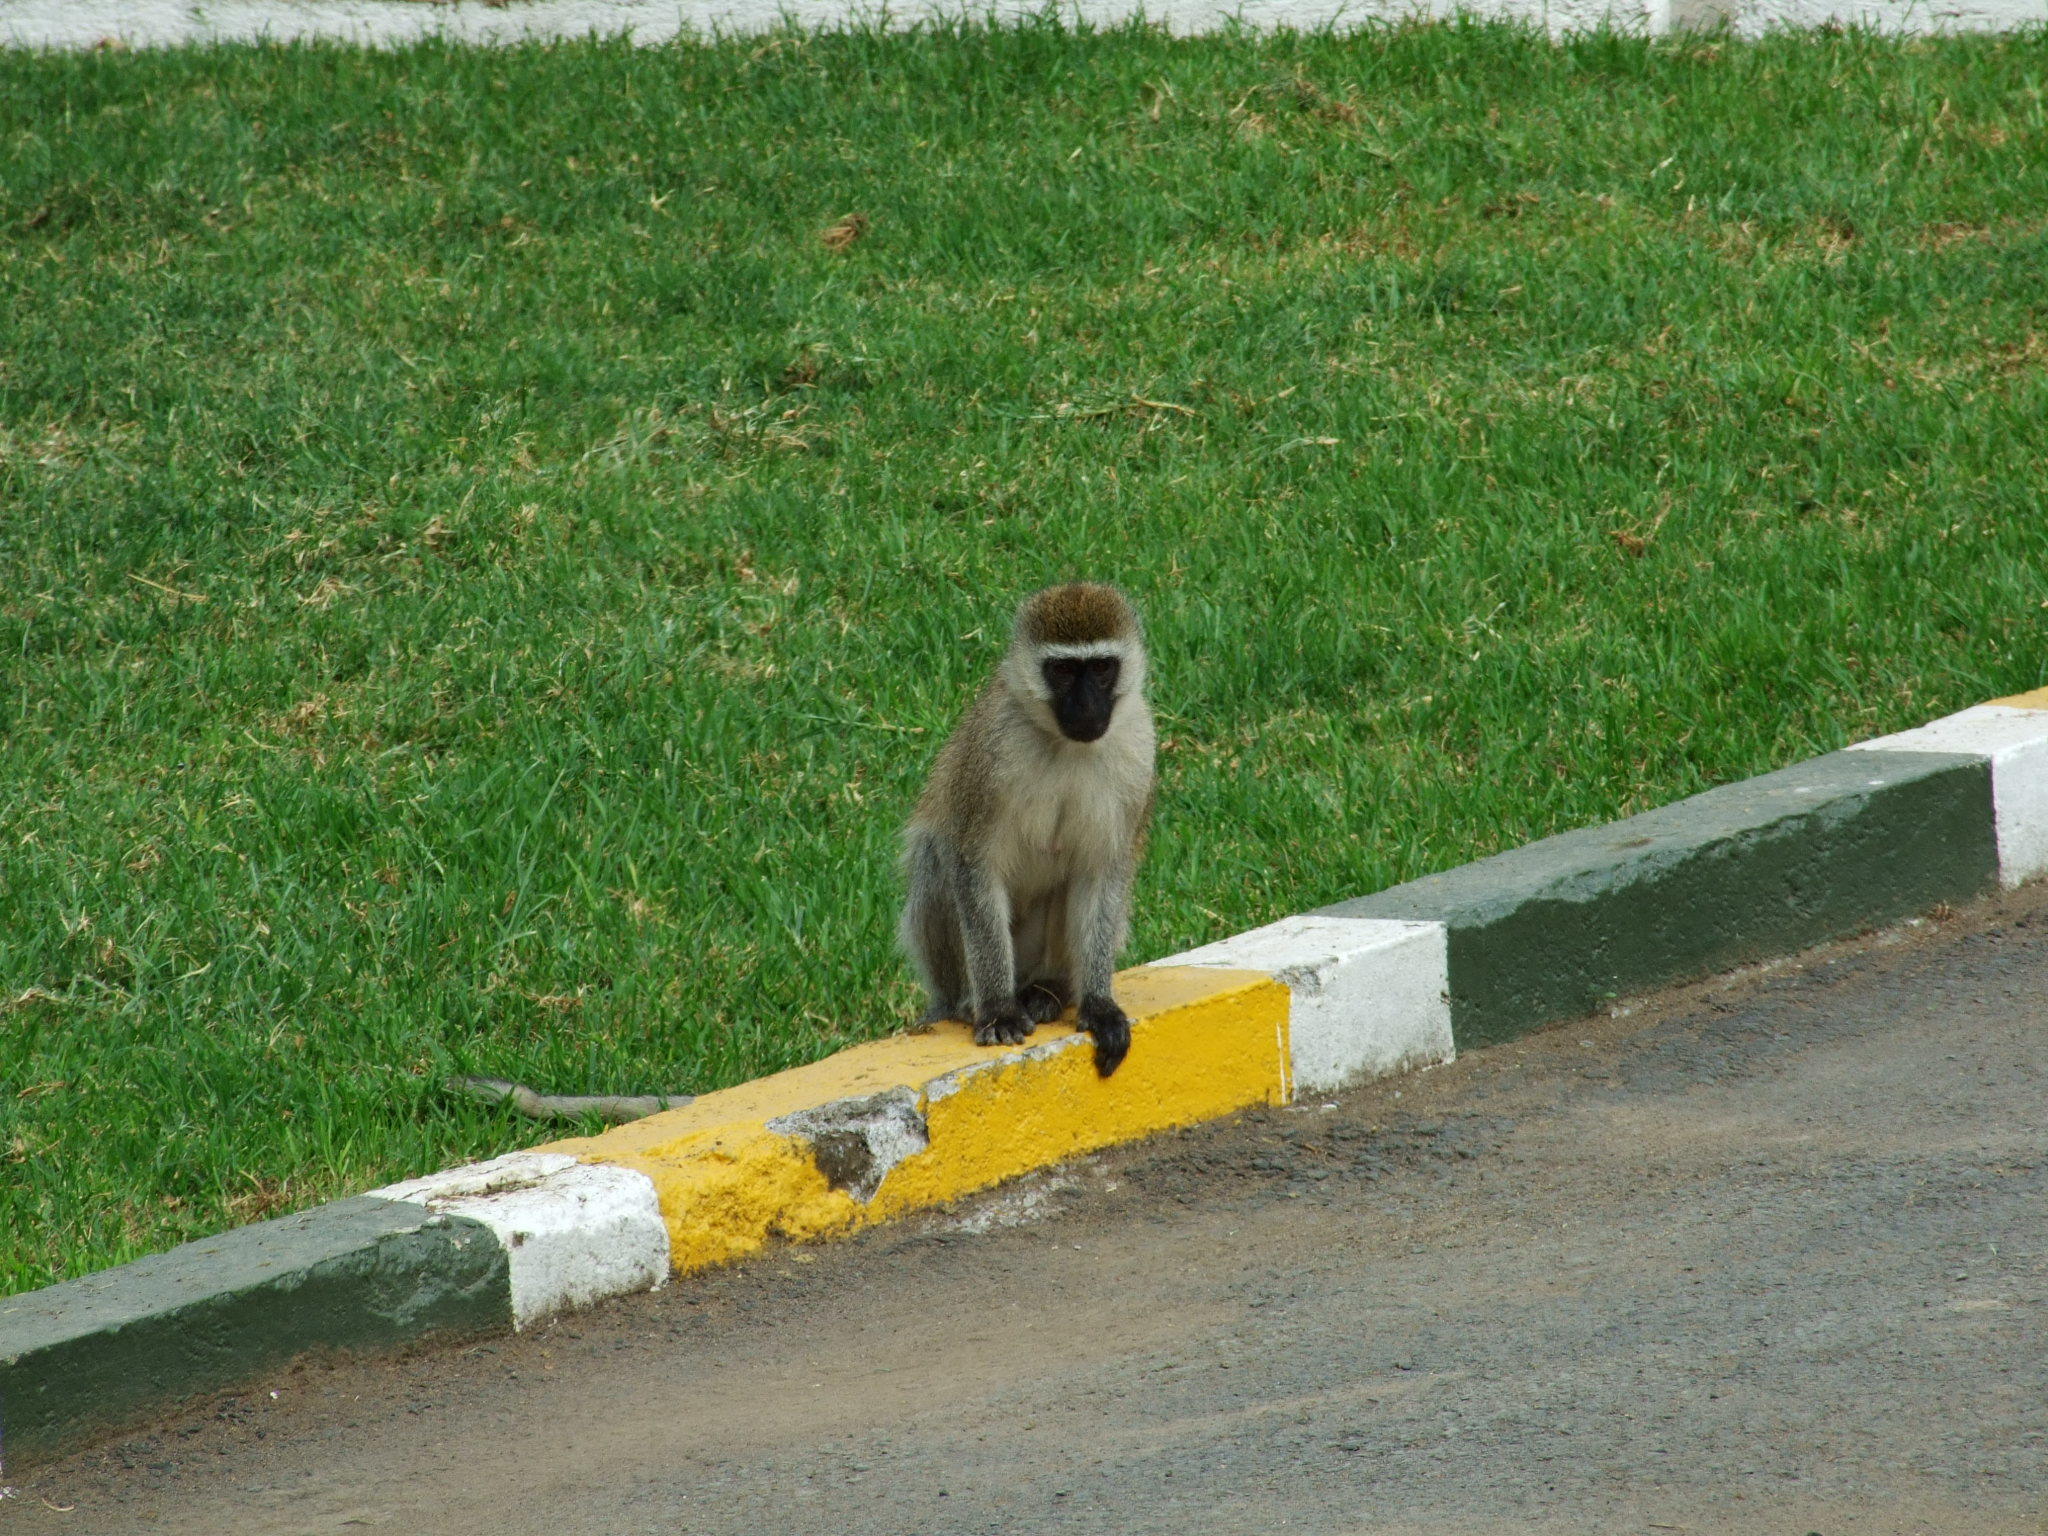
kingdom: Animalia
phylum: Chordata
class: Mammalia
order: Primates
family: Cercopithecidae
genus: Chlorocebus
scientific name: Chlorocebus pygerythrus
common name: Vervet monkey
